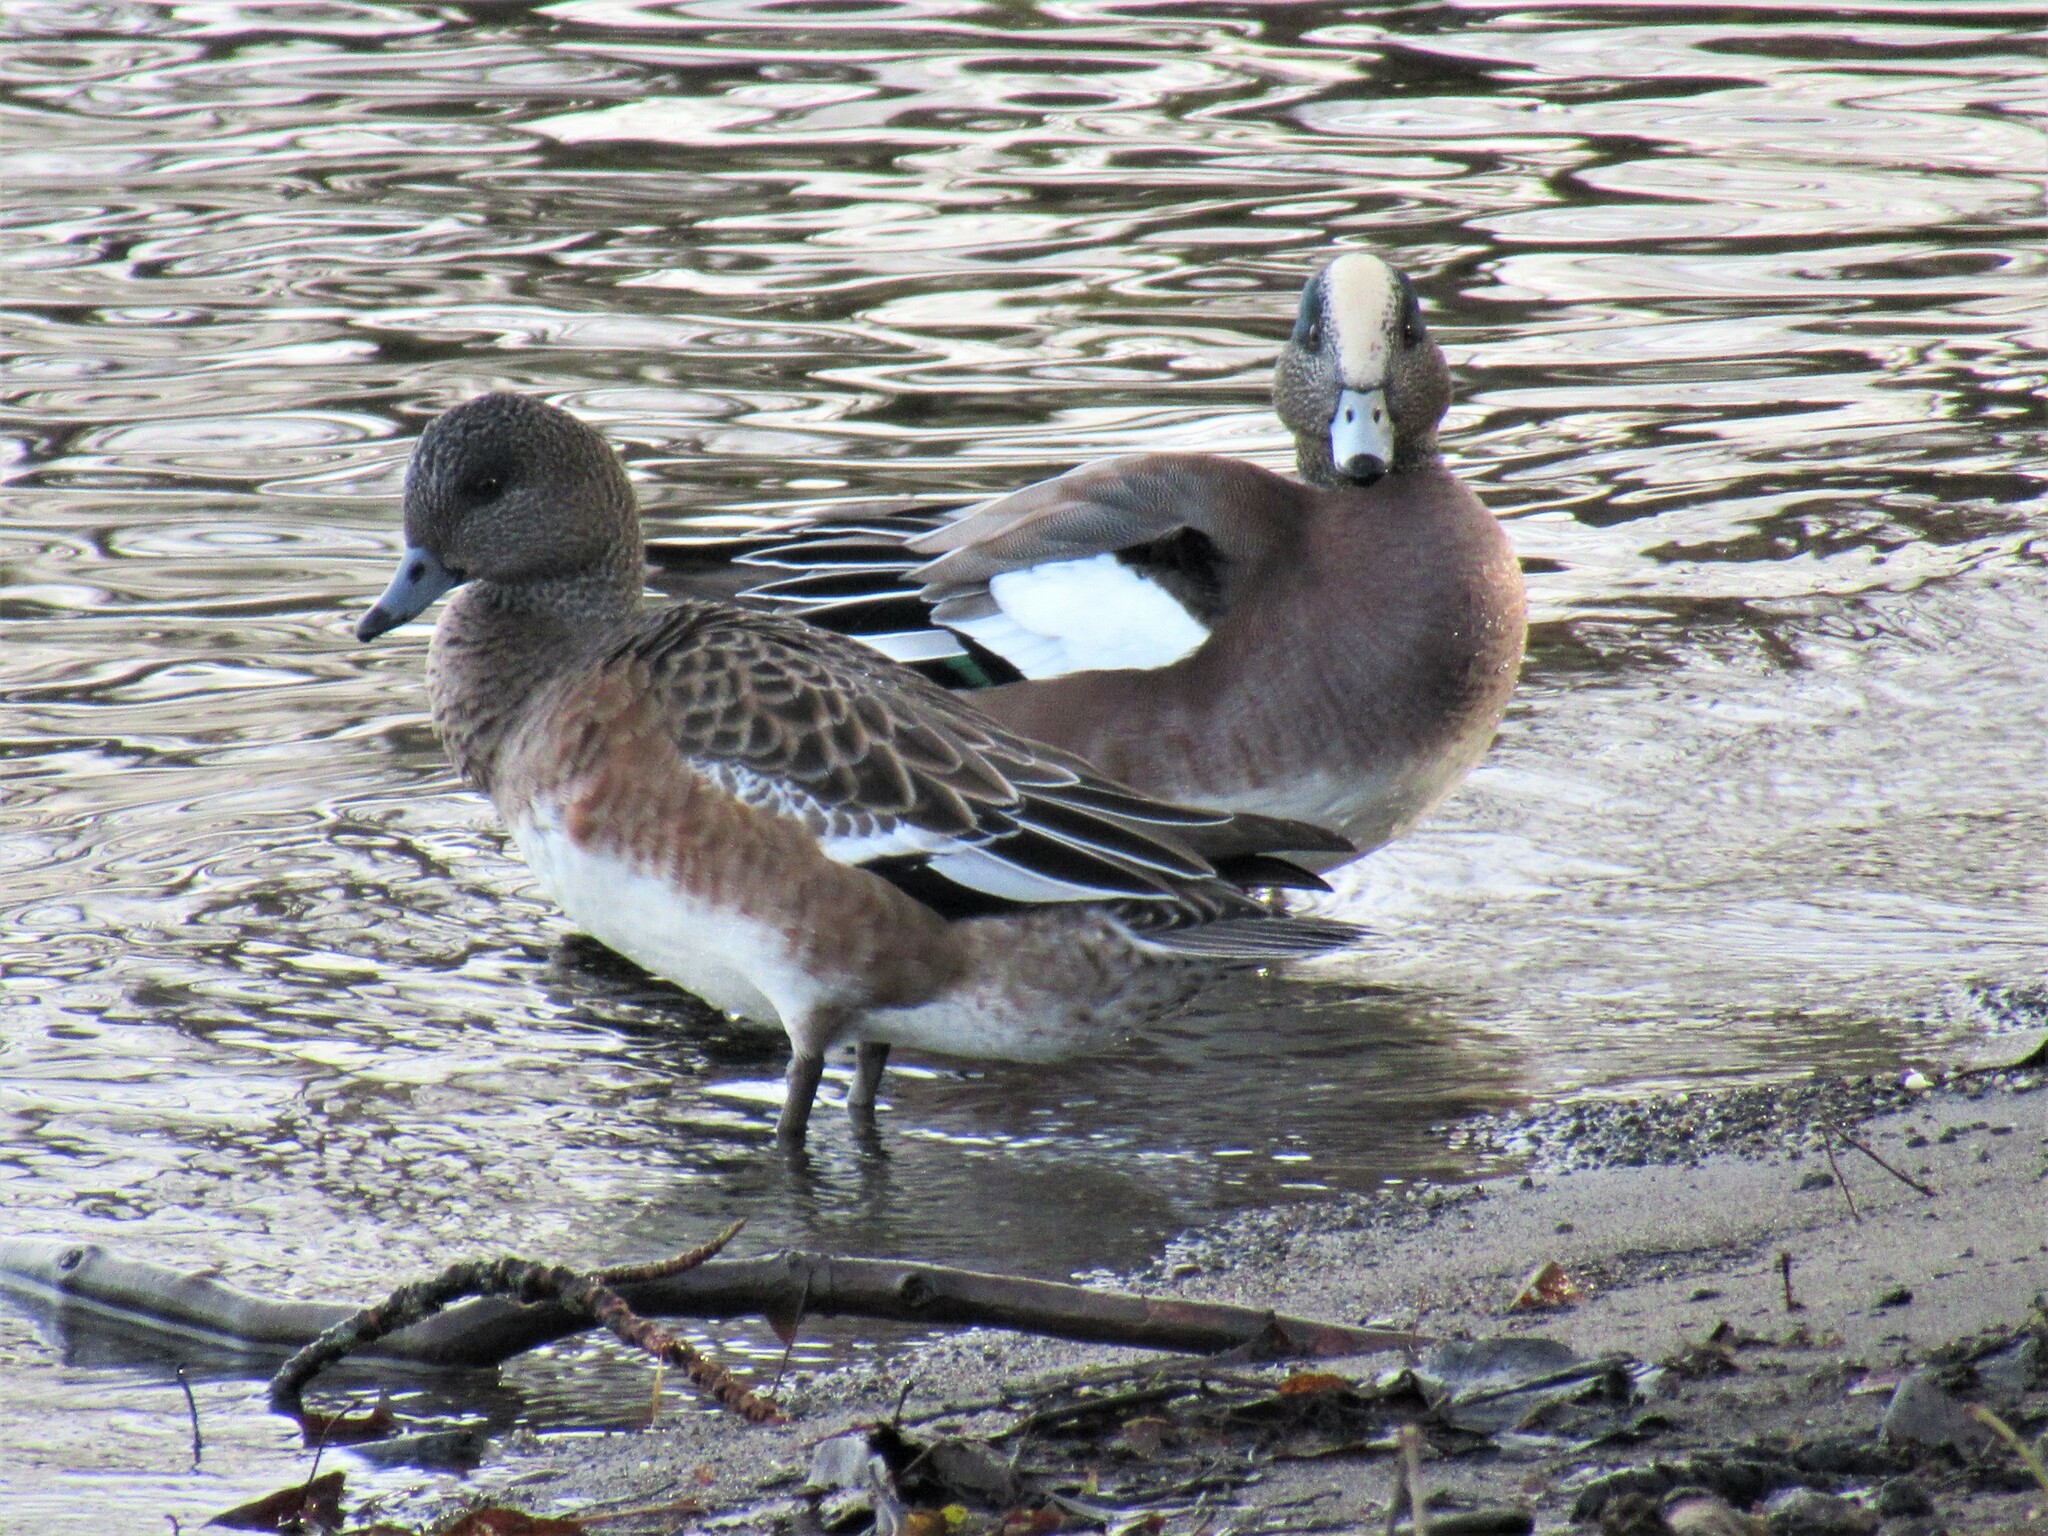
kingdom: Animalia
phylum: Chordata
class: Aves
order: Anseriformes
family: Anatidae
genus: Mareca
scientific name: Mareca americana
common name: American wigeon
